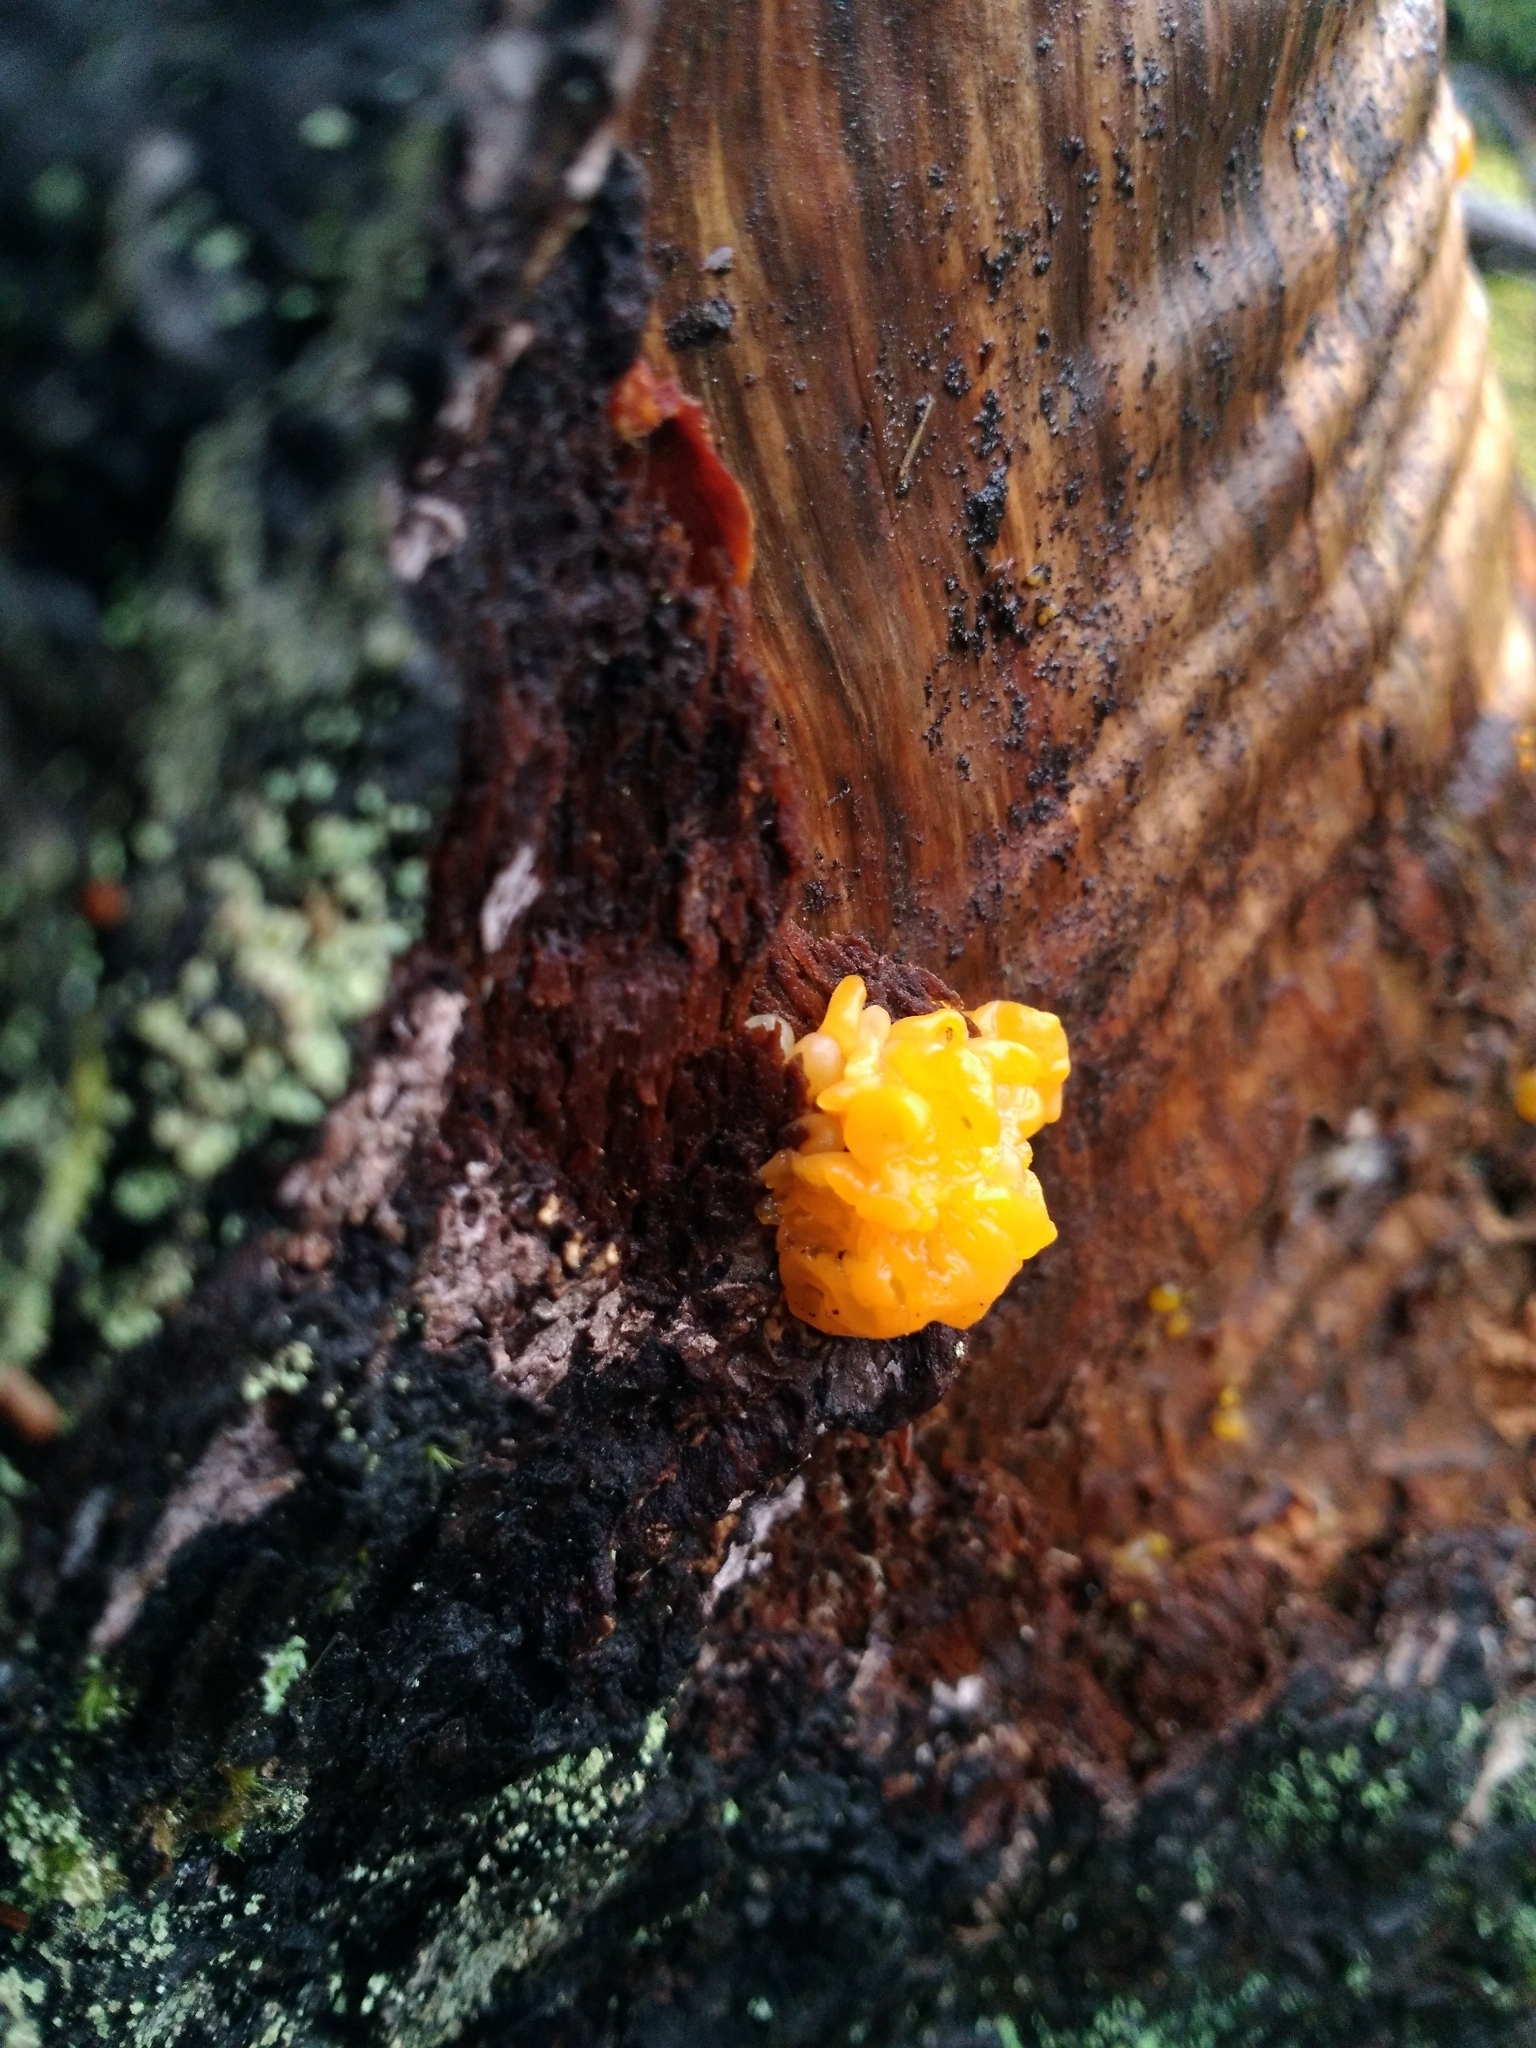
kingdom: Fungi
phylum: Basidiomycota
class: Tremellomycetes
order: Tremellales
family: Tremellaceae
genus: Tremella
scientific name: Tremella mesenterica
